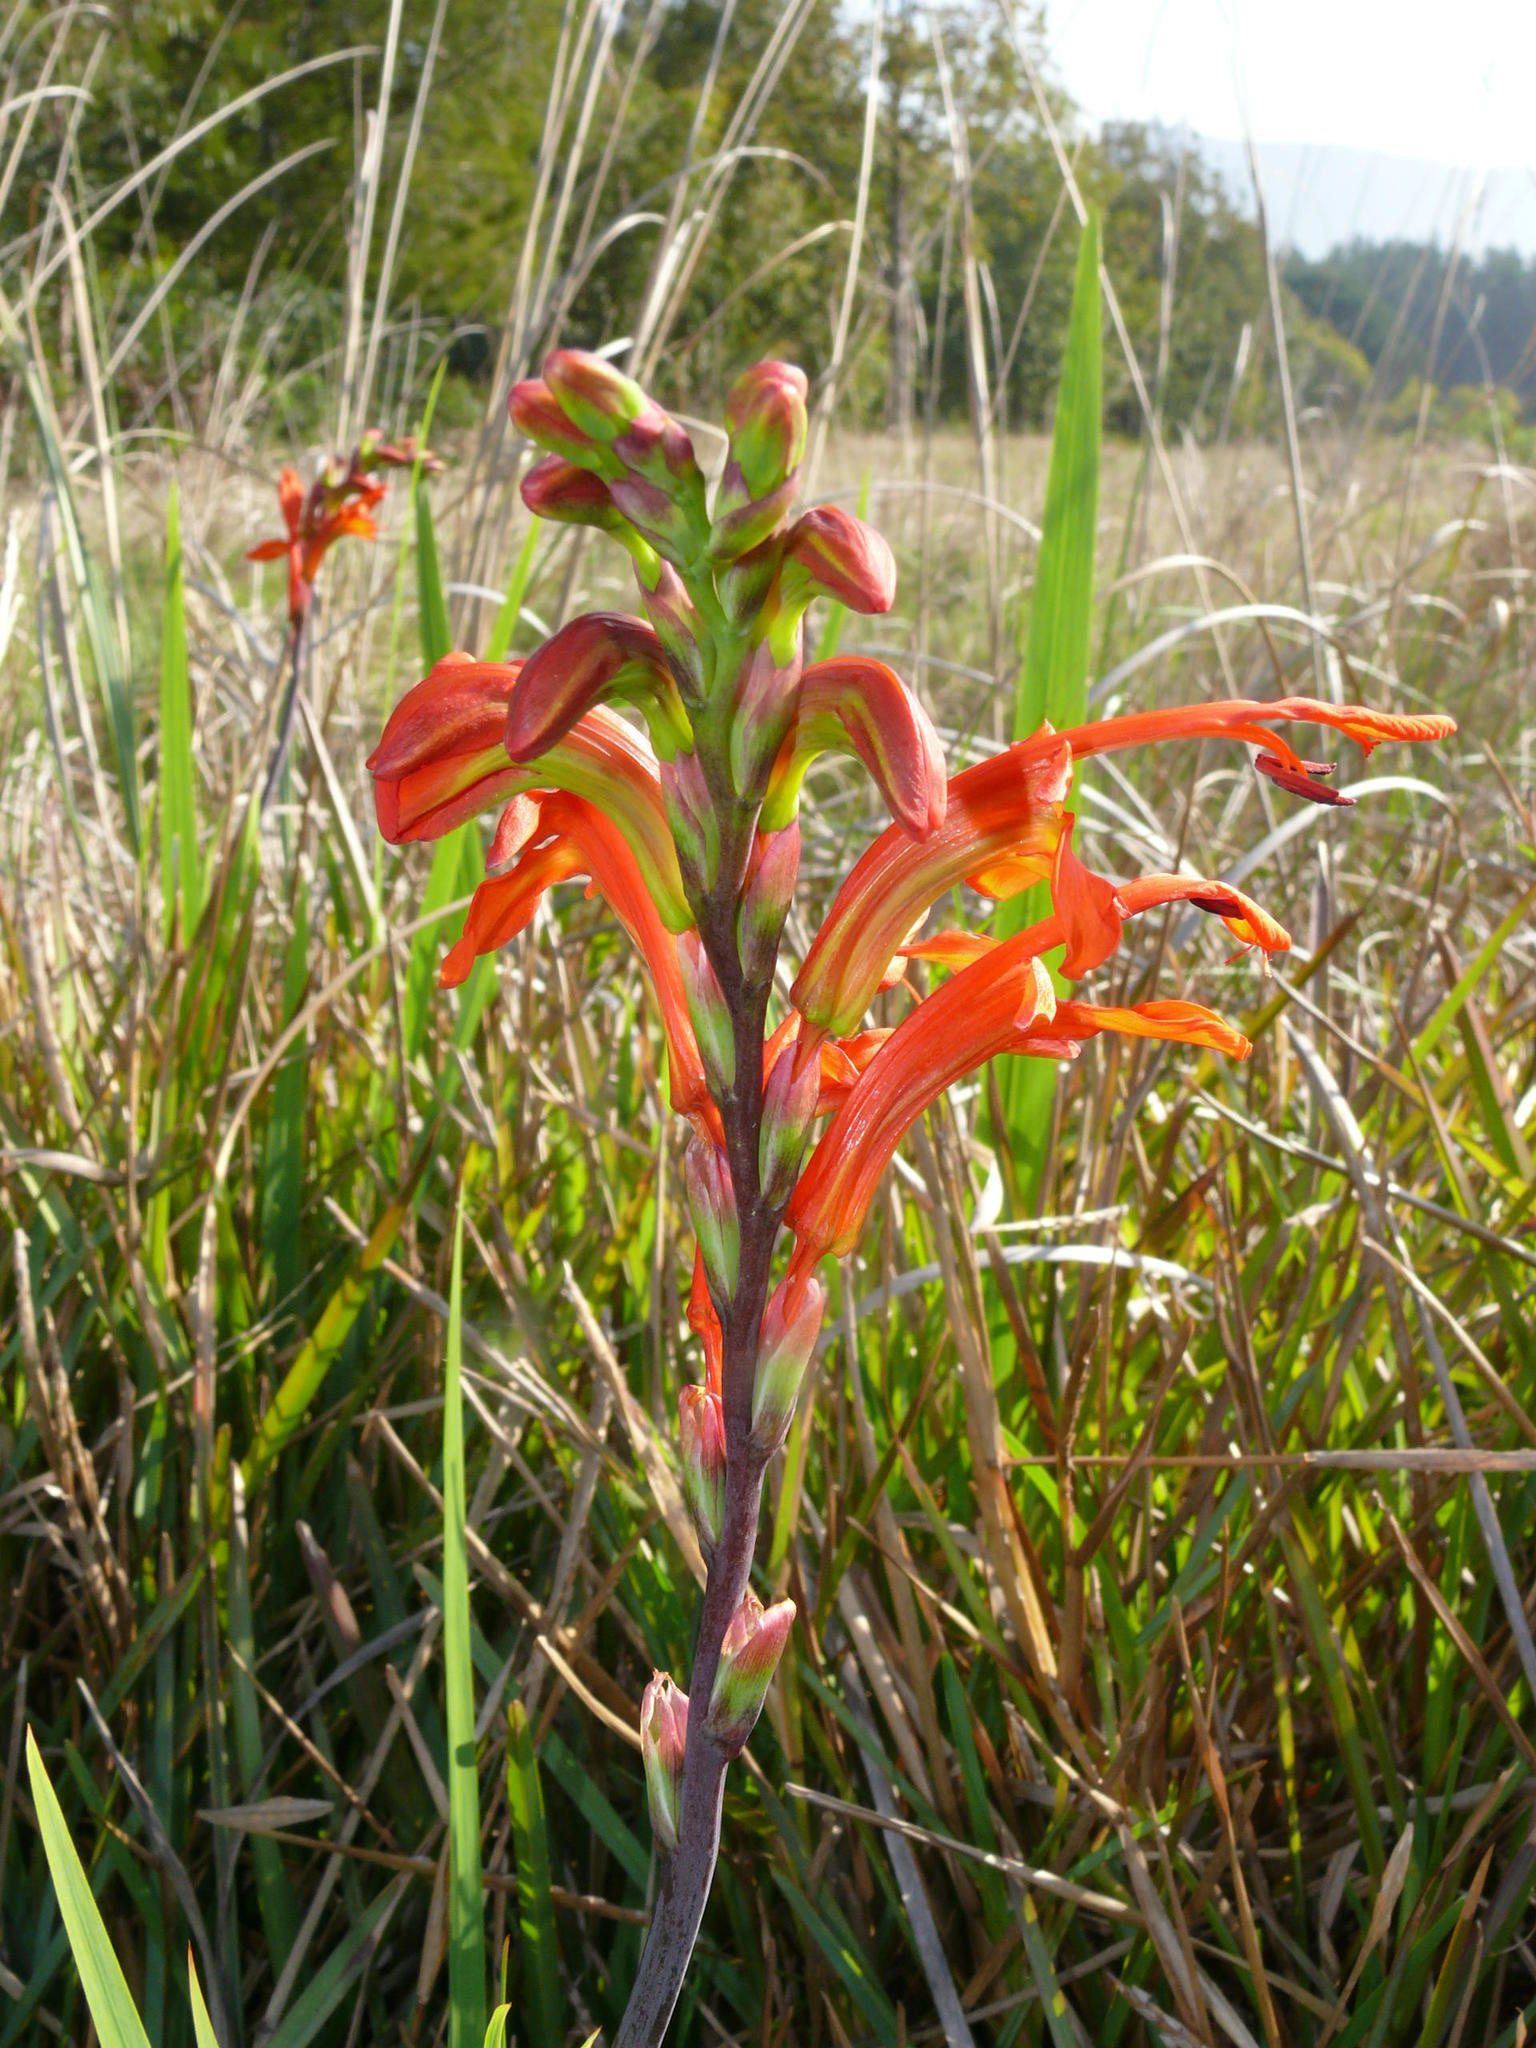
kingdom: Plantae
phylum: Tracheophyta
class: Liliopsida
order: Asparagales
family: Iridaceae
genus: Chasmanthe
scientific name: Chasmanthe aethiopica
